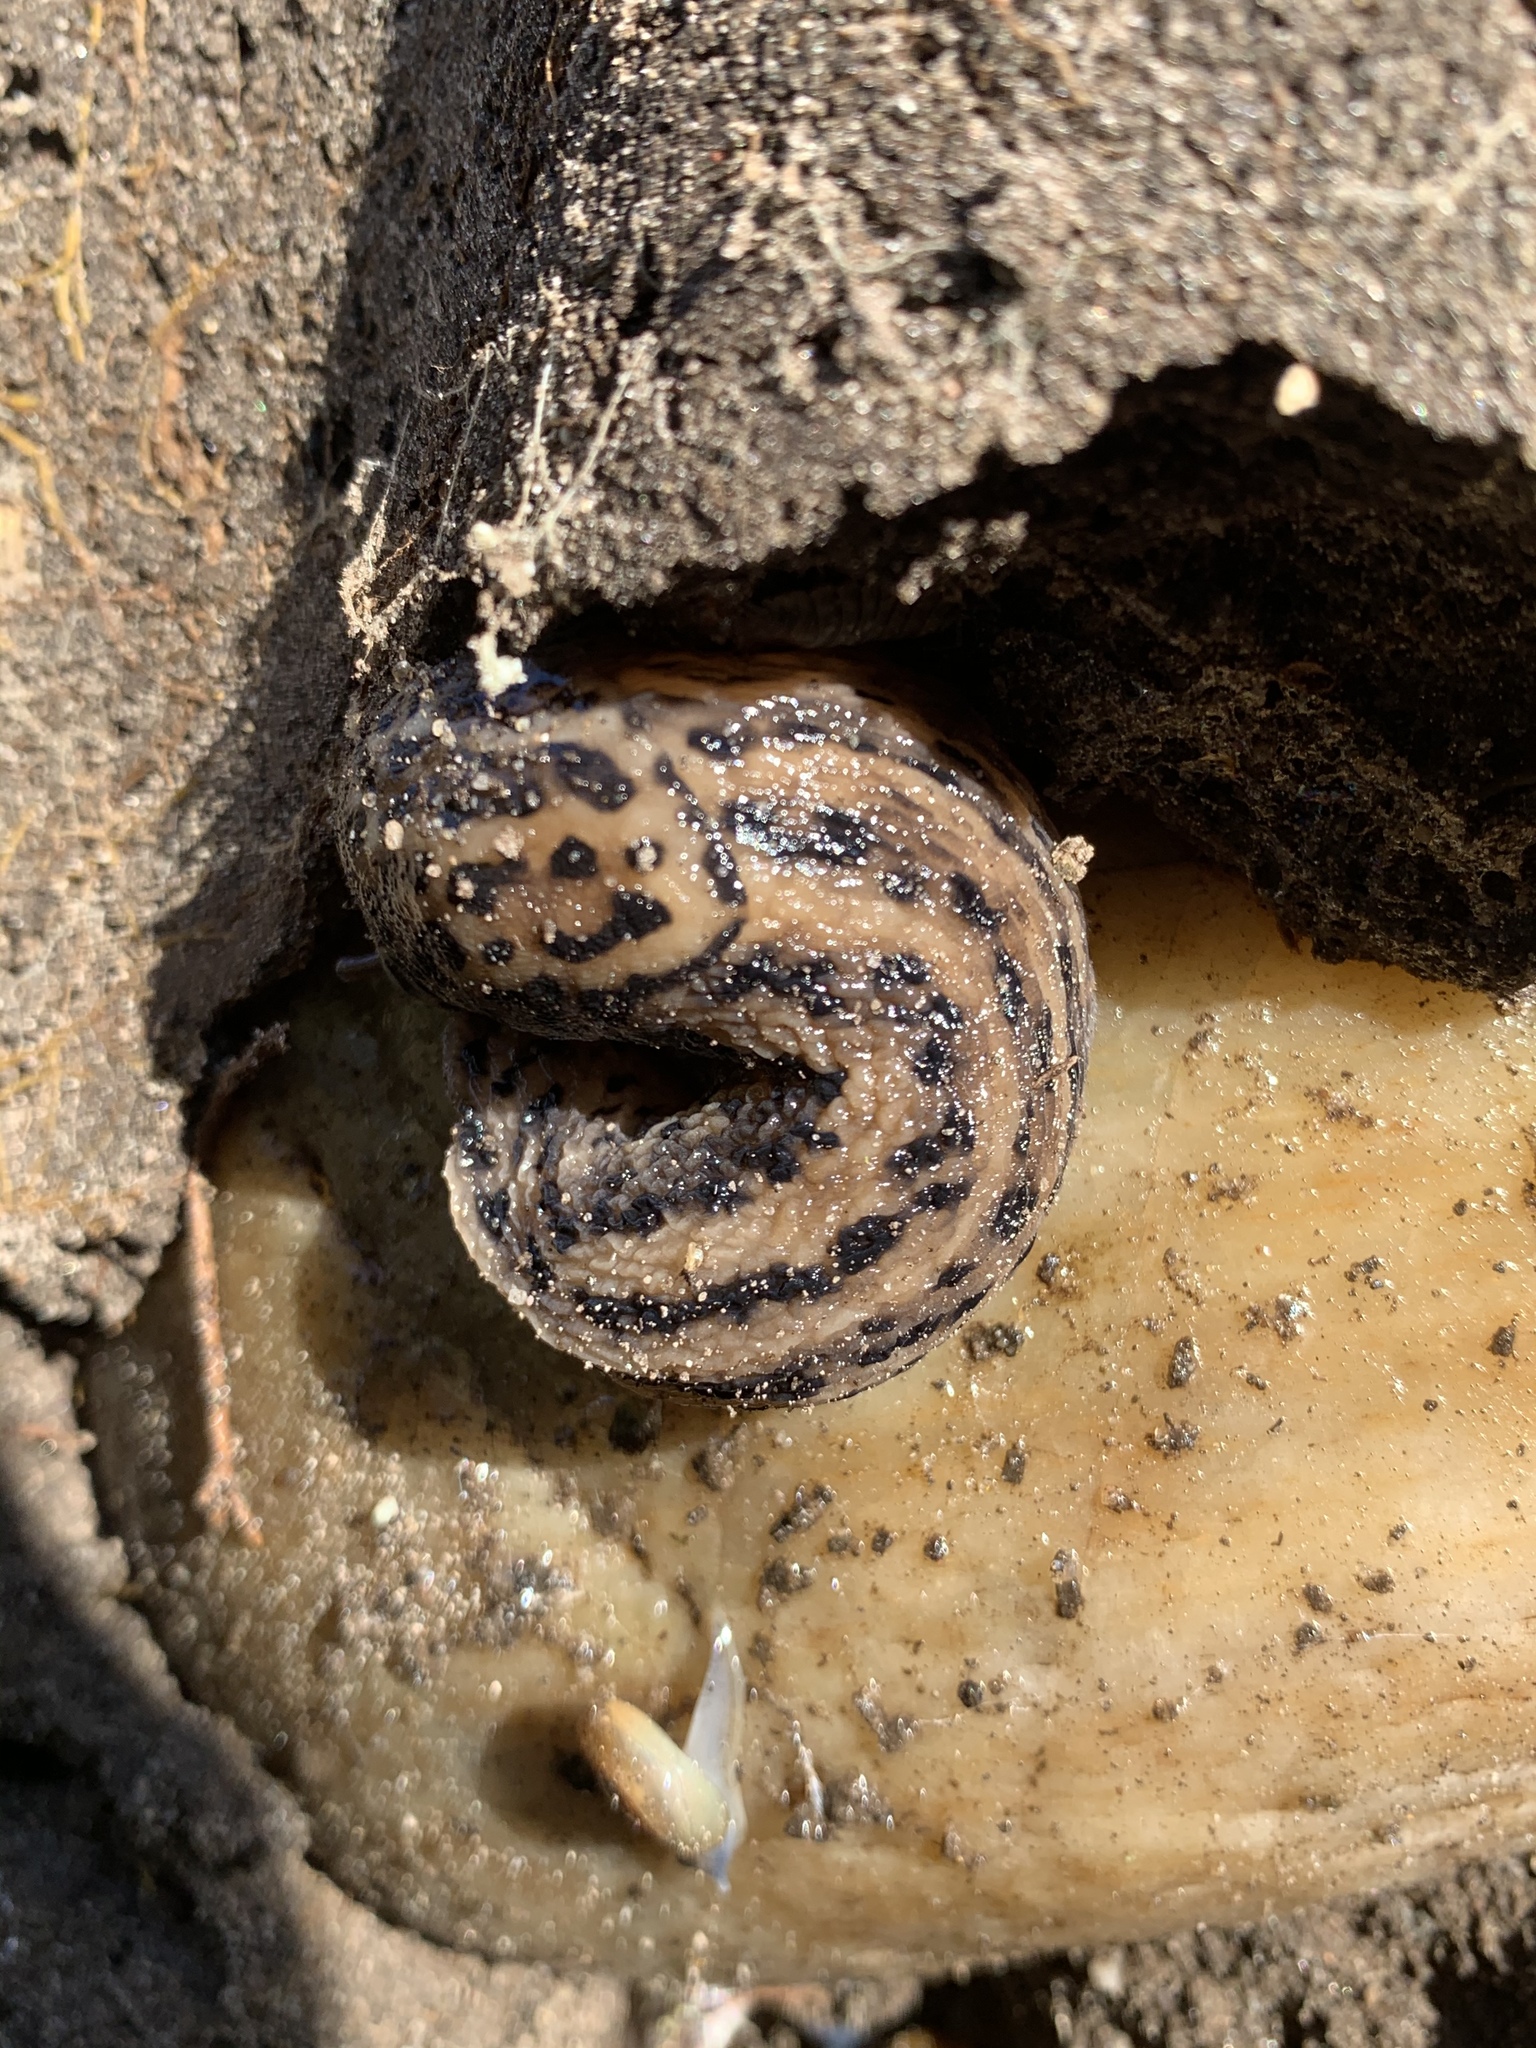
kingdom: Animalia
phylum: Mollusca
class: Gastropoda
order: Stylommatophora
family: Limacidae
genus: Limax
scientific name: Limax maximus
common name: Great grey slug
